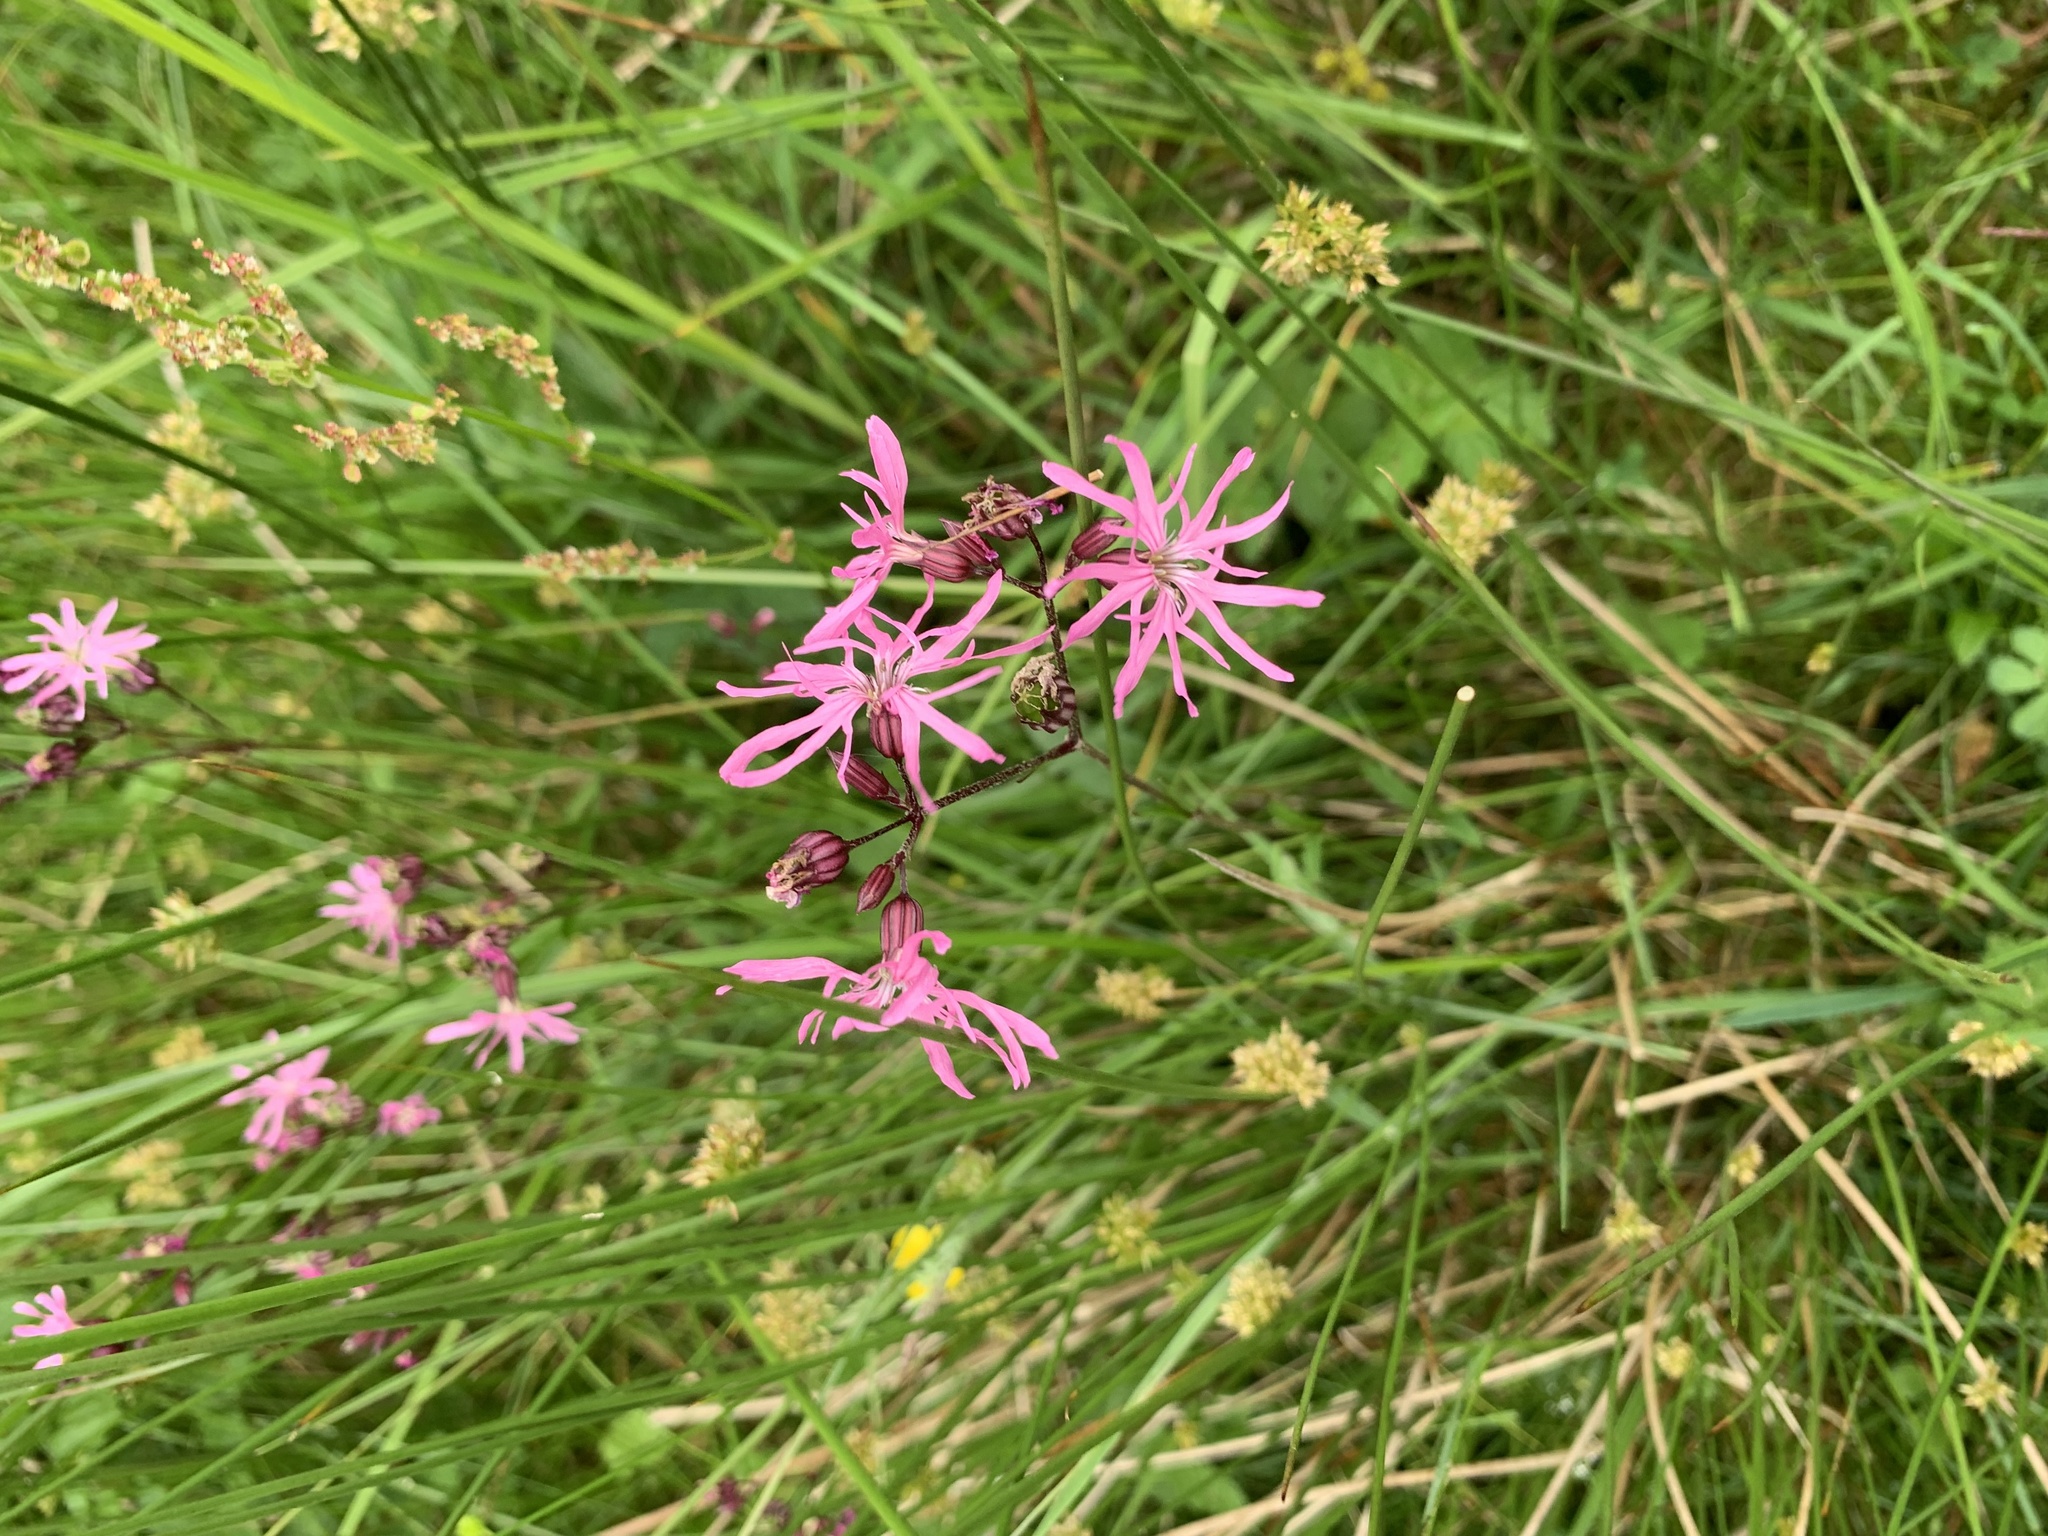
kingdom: Plantae
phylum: Tracheophyta
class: Magnoliopsida
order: Caryophyllales
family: Caryophyllaceae
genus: Silene
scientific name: Silene flos-cuculi
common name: Ragged-robin
